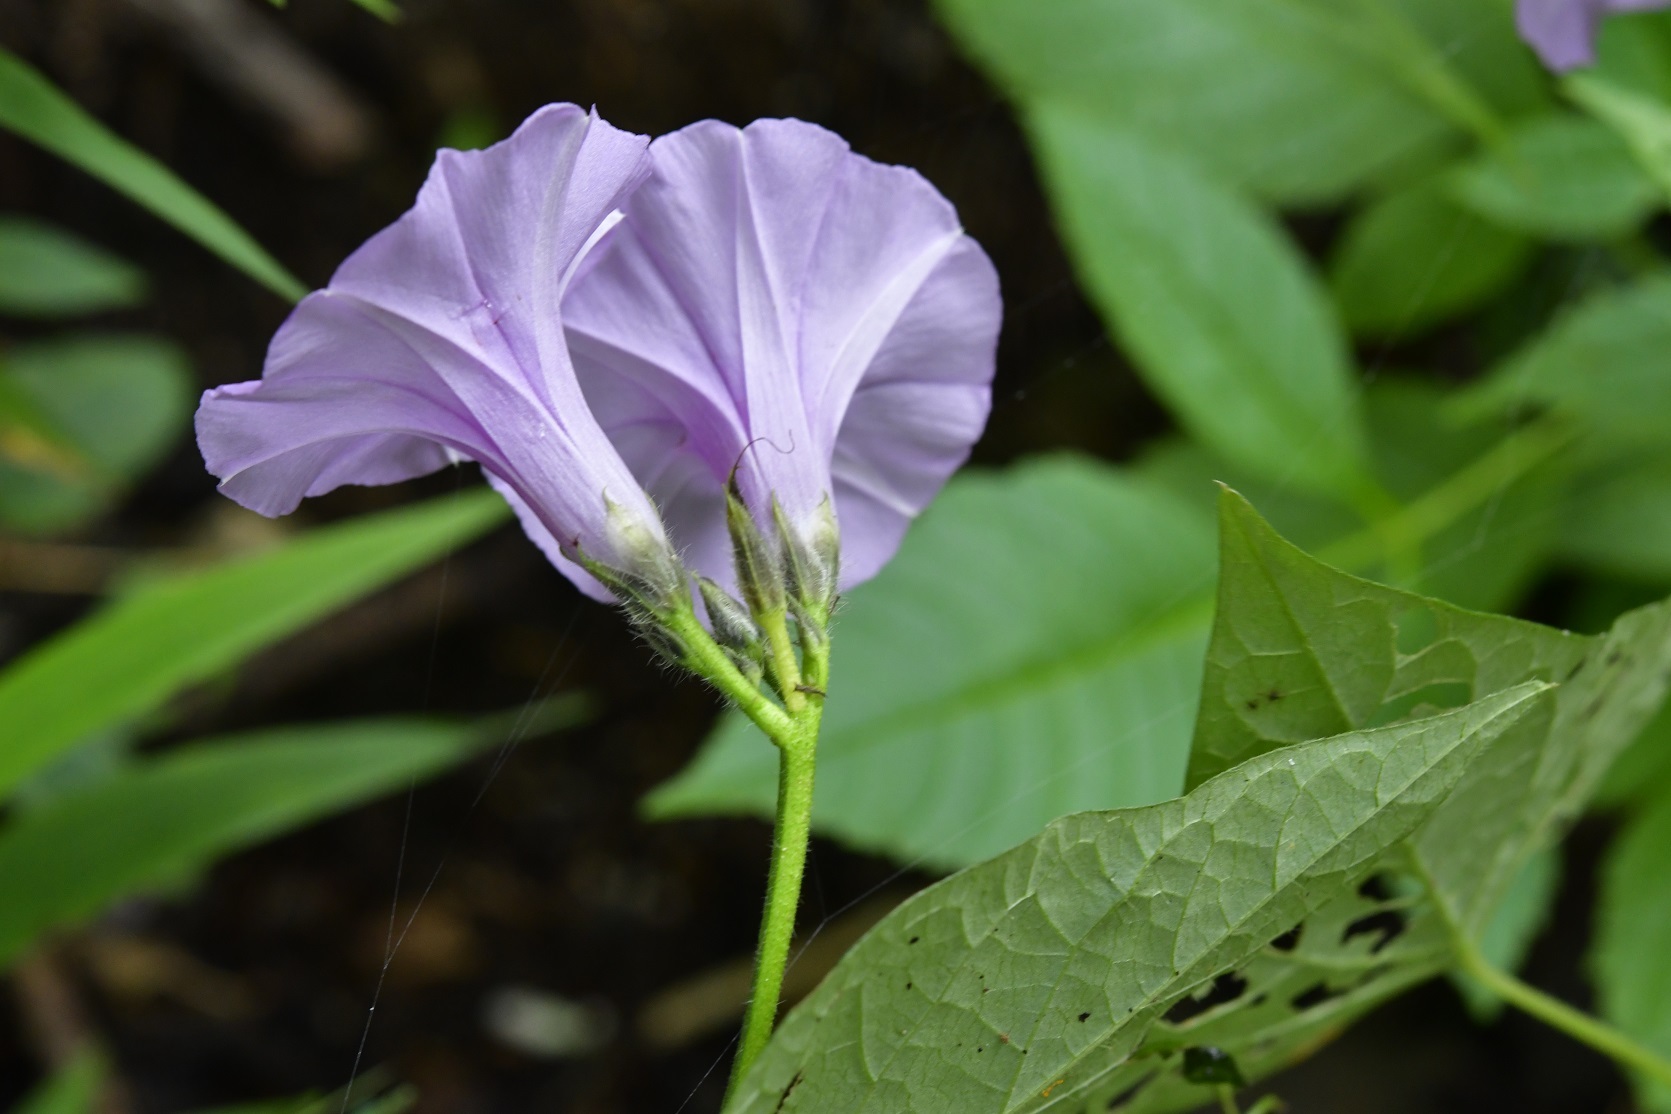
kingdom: Plantae
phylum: Tracheophyta
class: Magnoliopsida
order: Solanales
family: Convolvulaceae
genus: Ipomoea
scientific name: Ipomoea trifida
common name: Cotton morningglory
